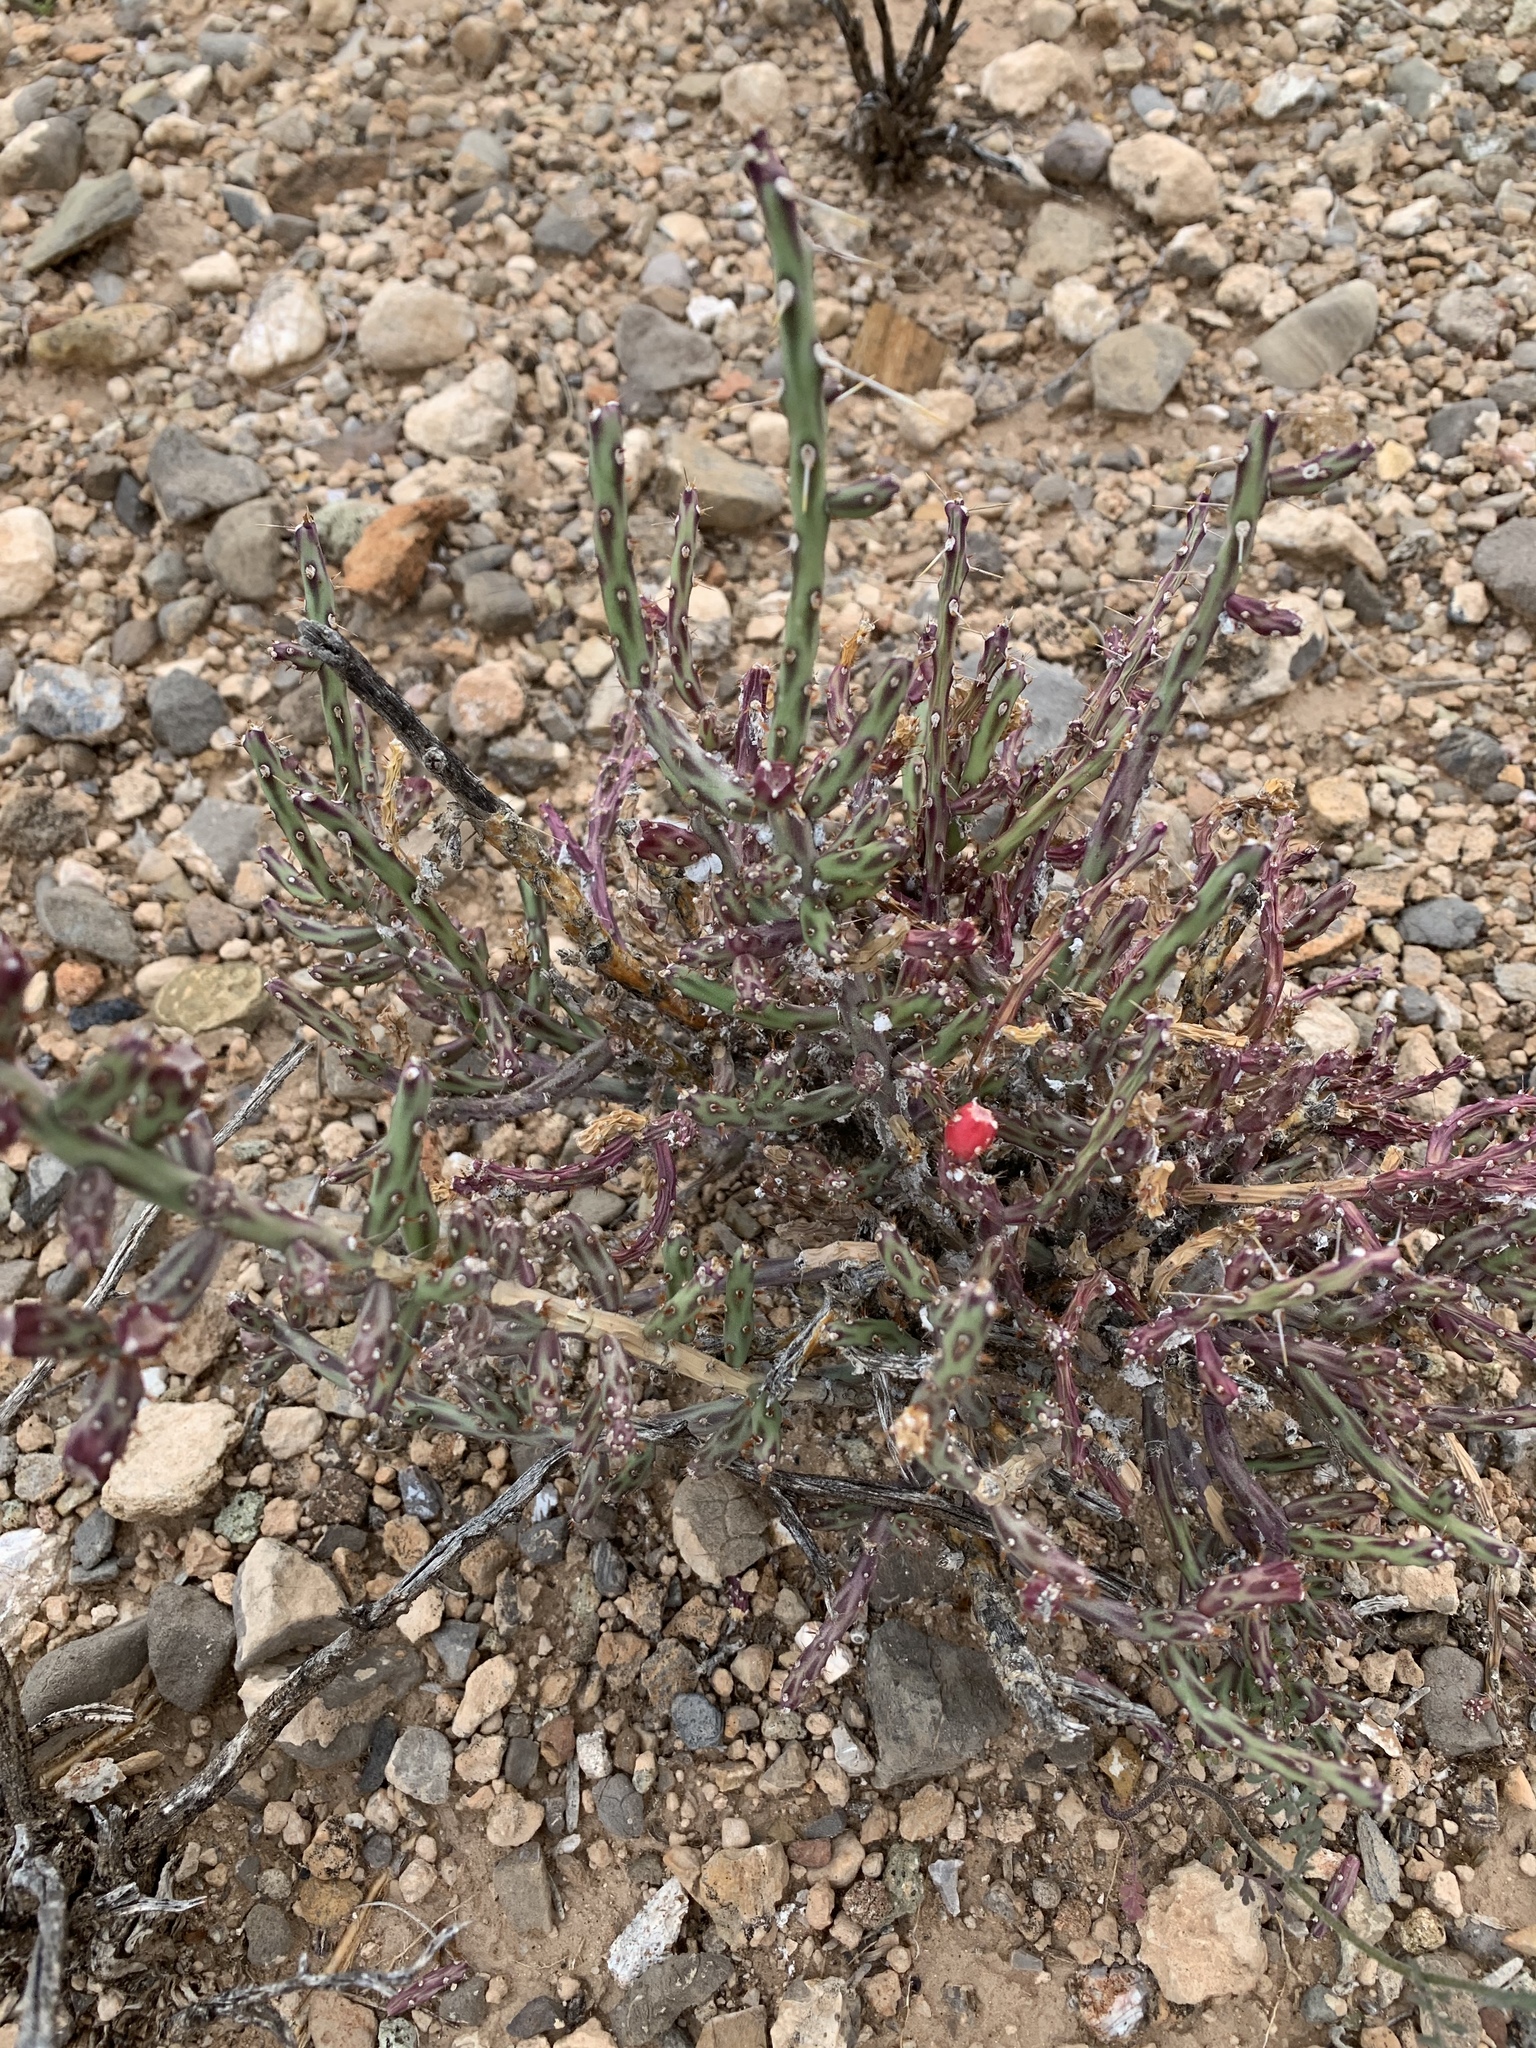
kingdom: Plantae
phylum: Tracheophyta
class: Magnoliopsida
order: Caryophyllales
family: Cactaceae
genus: Cylindropuntia
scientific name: Cylindropuntia leptocaulis
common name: Christmas cactus
